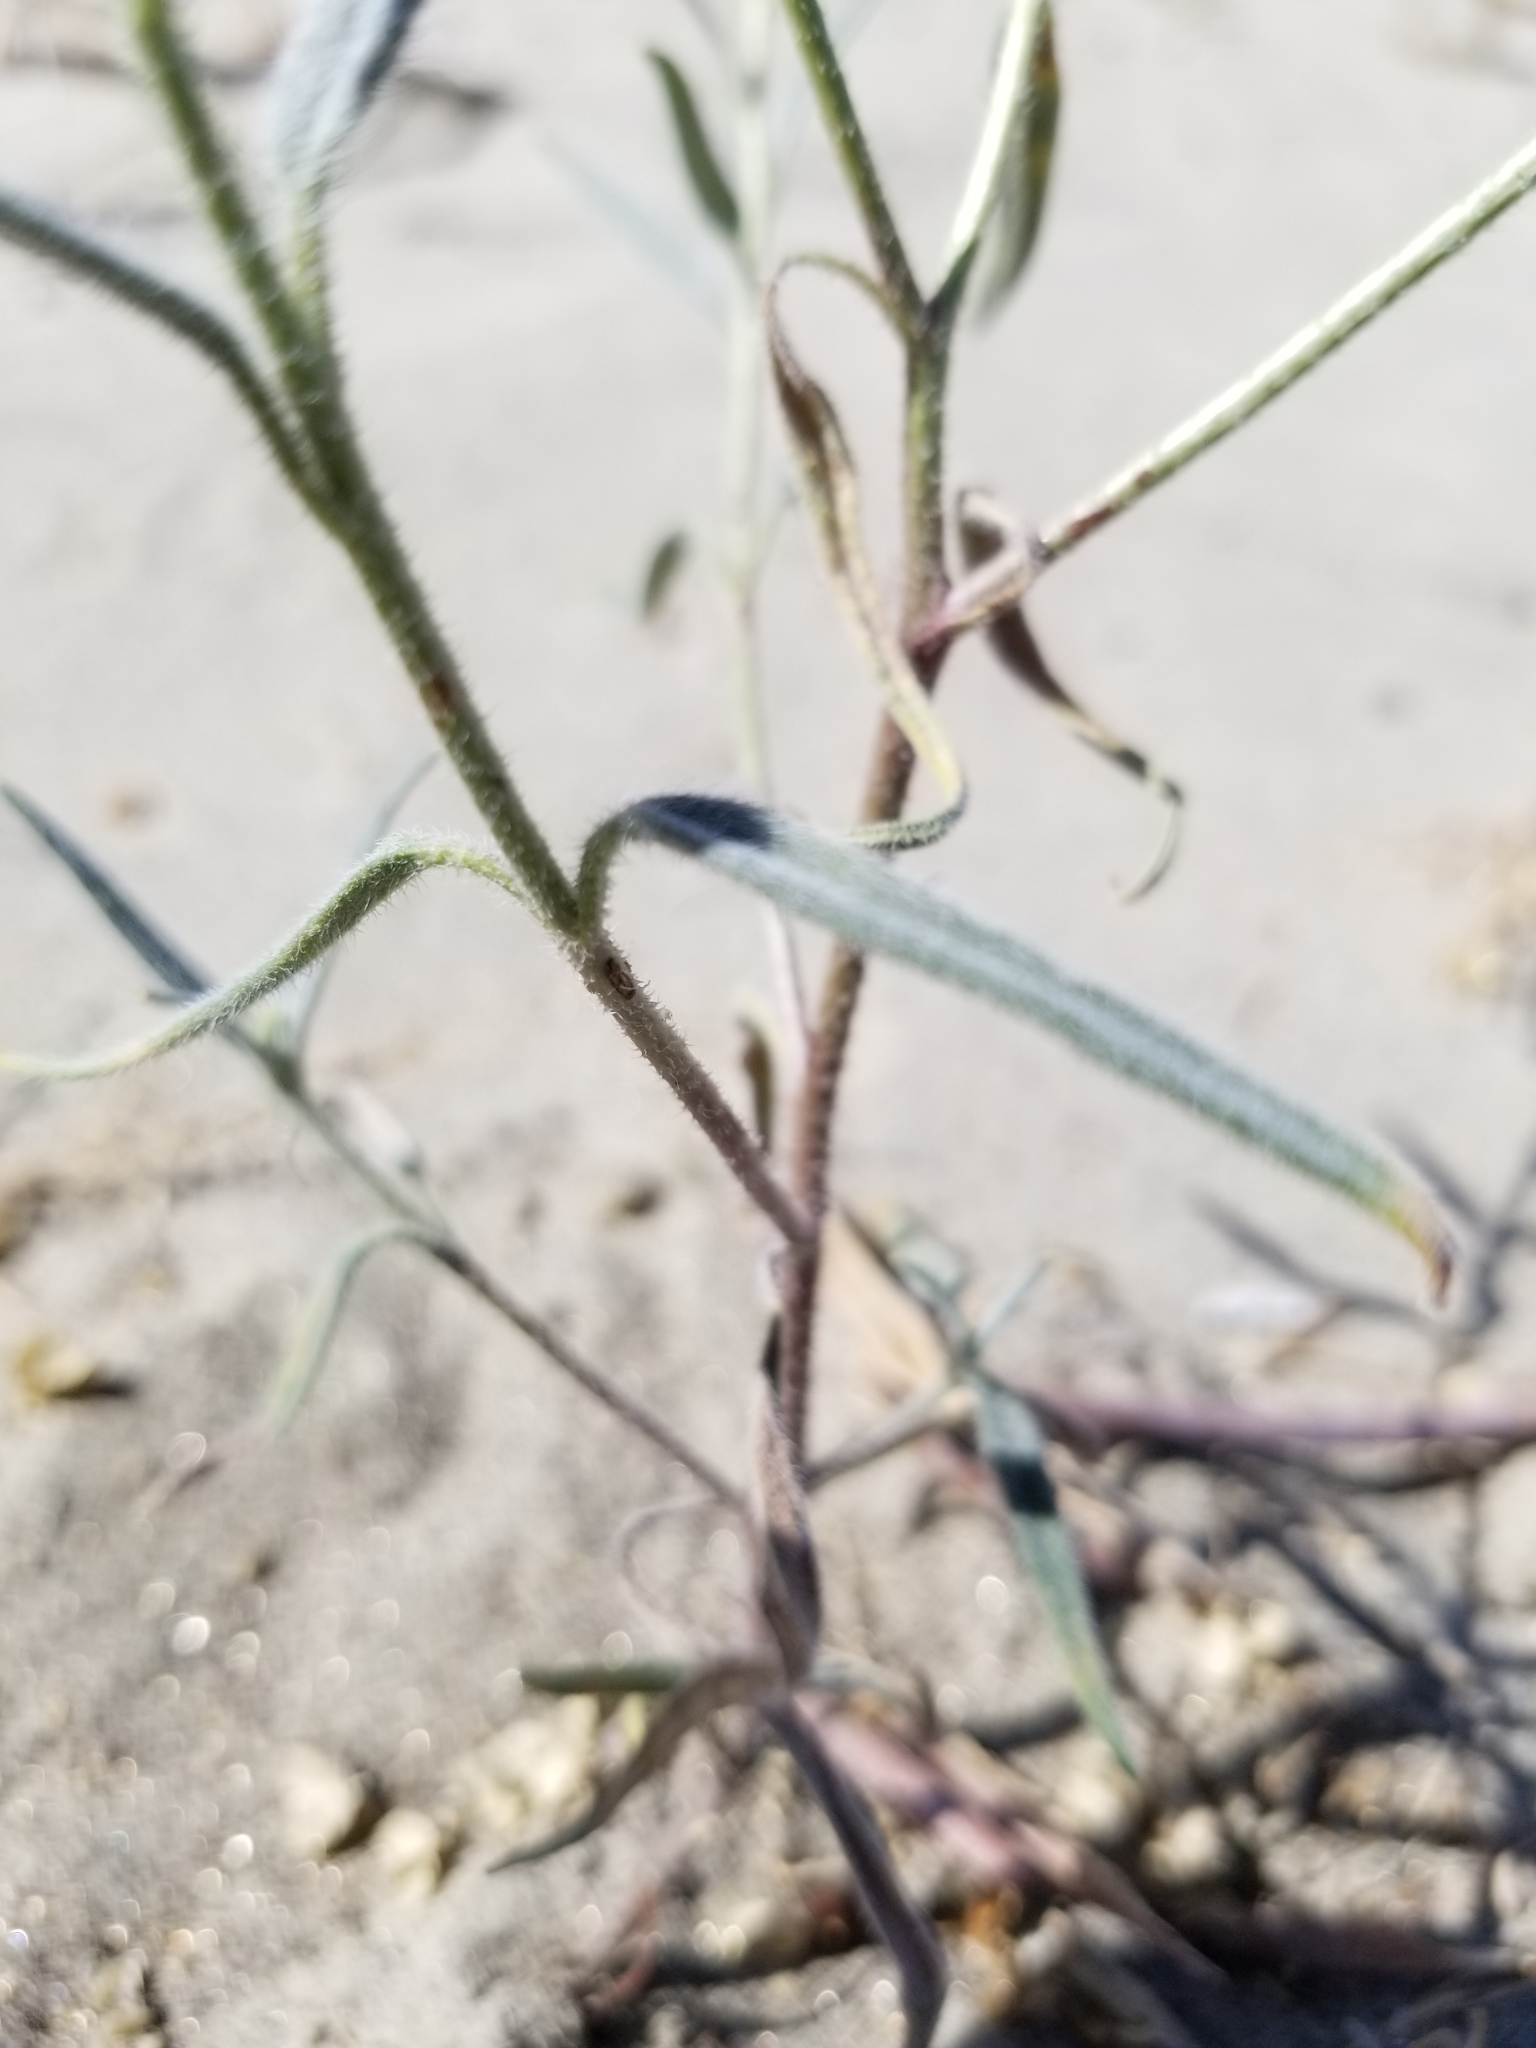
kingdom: Plantae
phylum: Tracheophyta
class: Magnoliopsida
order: Asterales
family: Asteraceae
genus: Palafoxia
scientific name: Palafoxia arida
